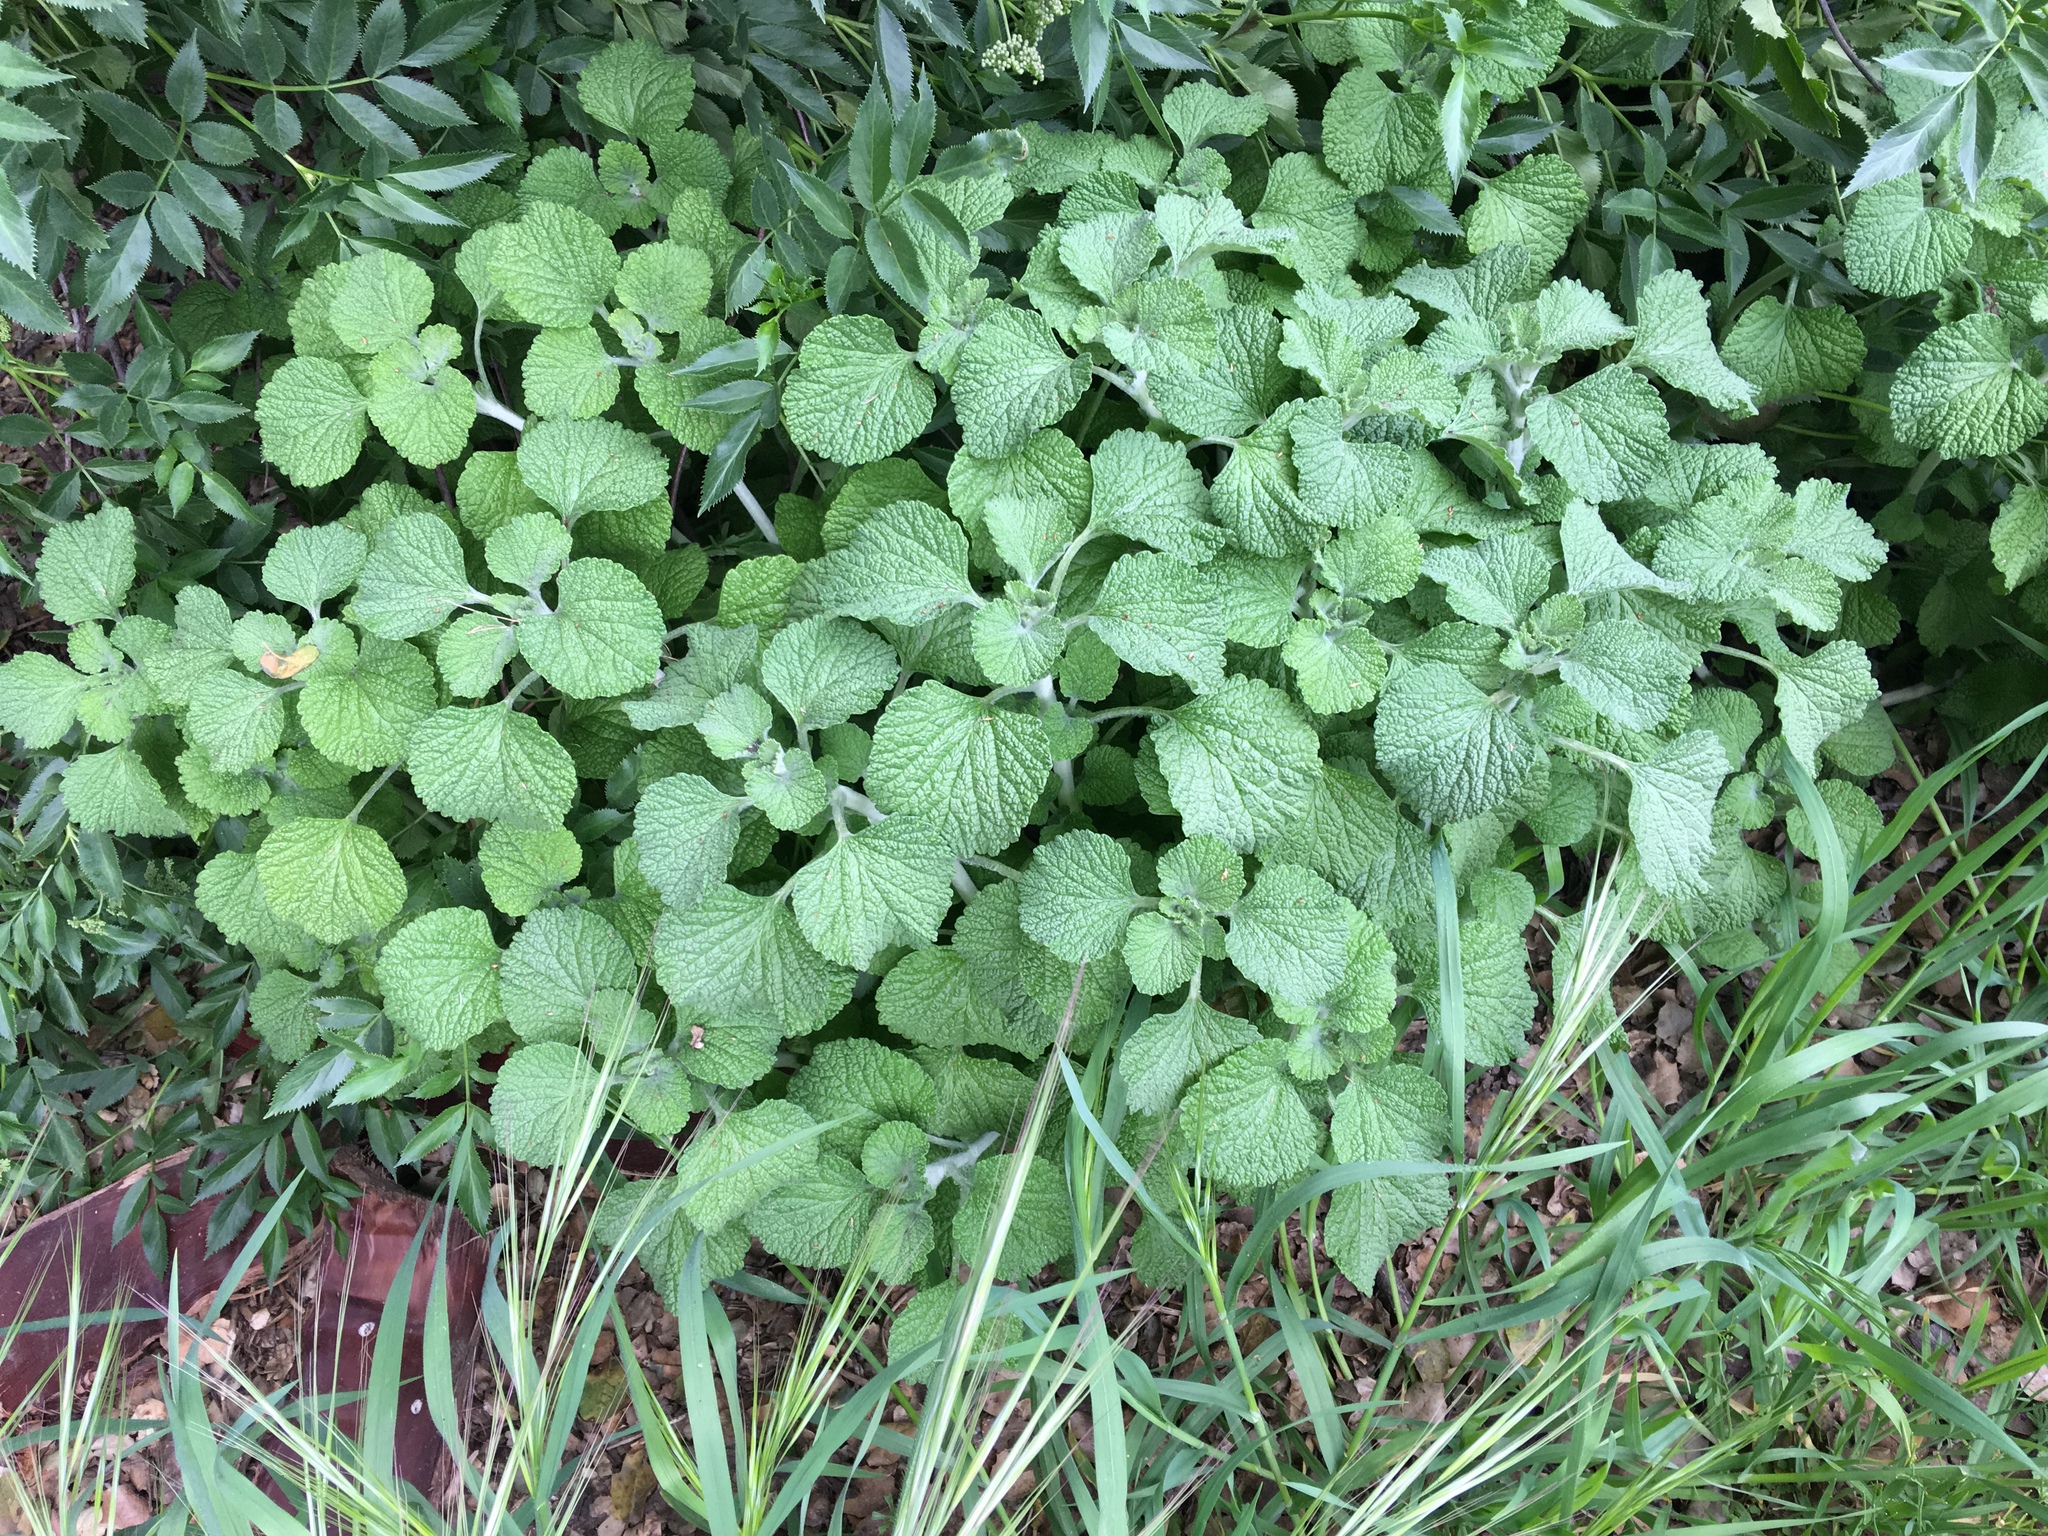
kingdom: Plantae
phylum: Tracheophyta
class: Magnoliopsida
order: Lamiales
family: Lamiaceae
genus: Marrubium
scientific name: Marrubium vulgare
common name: Horehound
